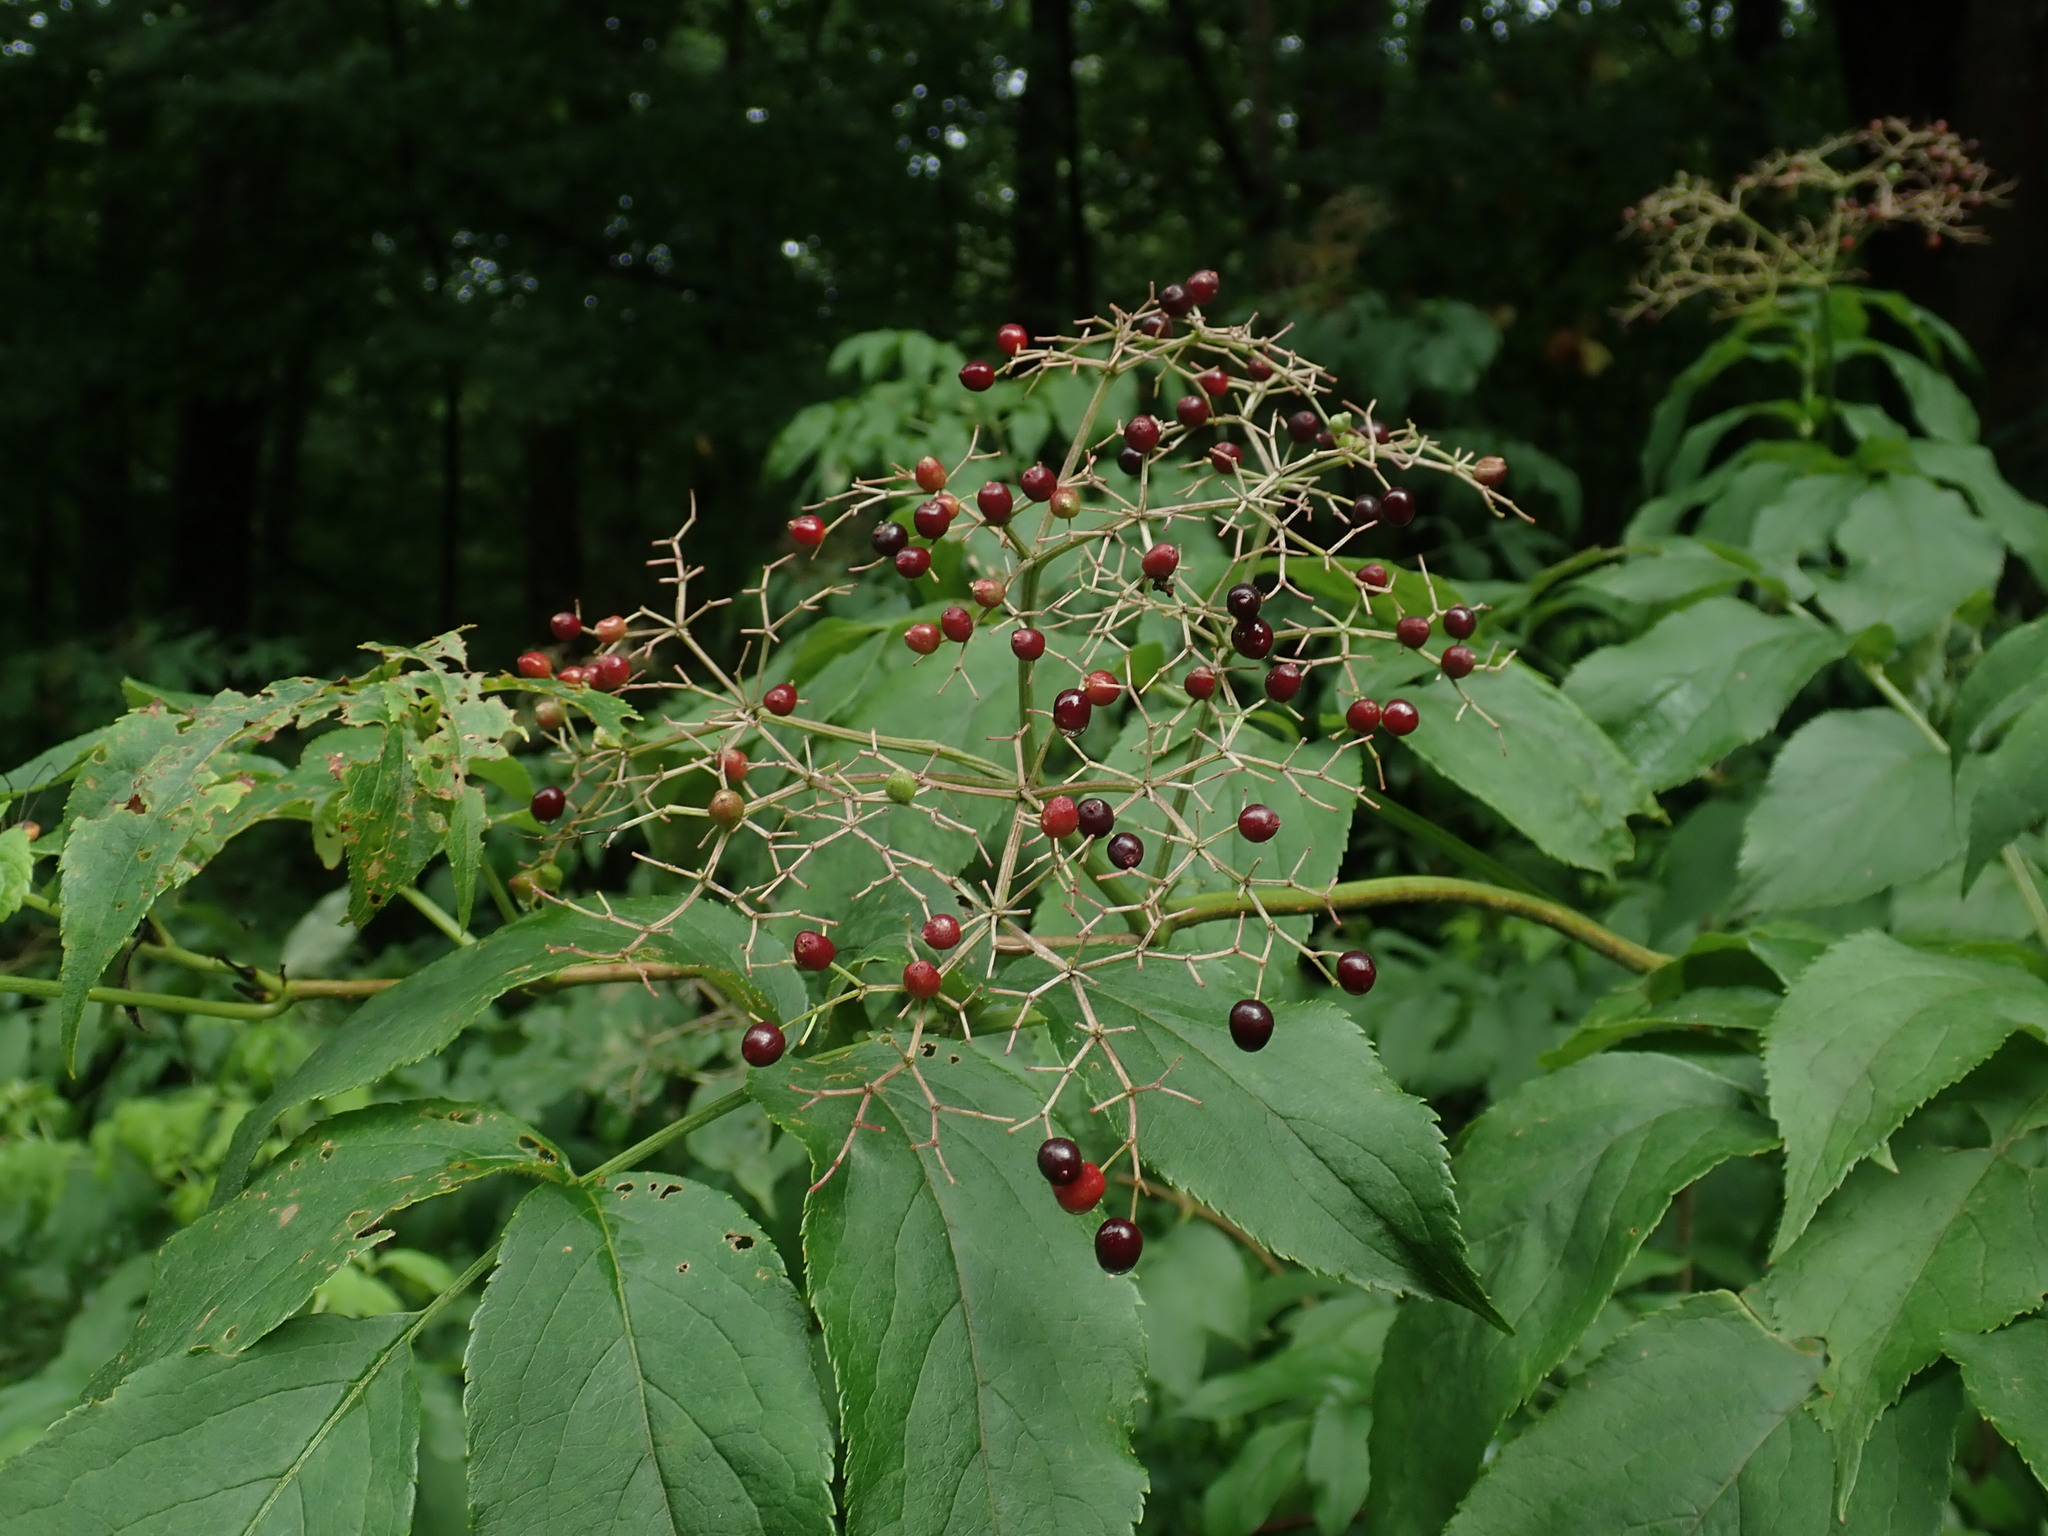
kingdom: Plantae
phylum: Tracheophyta
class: Magnoliopsida
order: Dipsacales
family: Viburnaceae
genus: Sambucus
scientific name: Sambucus canadensis
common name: American elder
